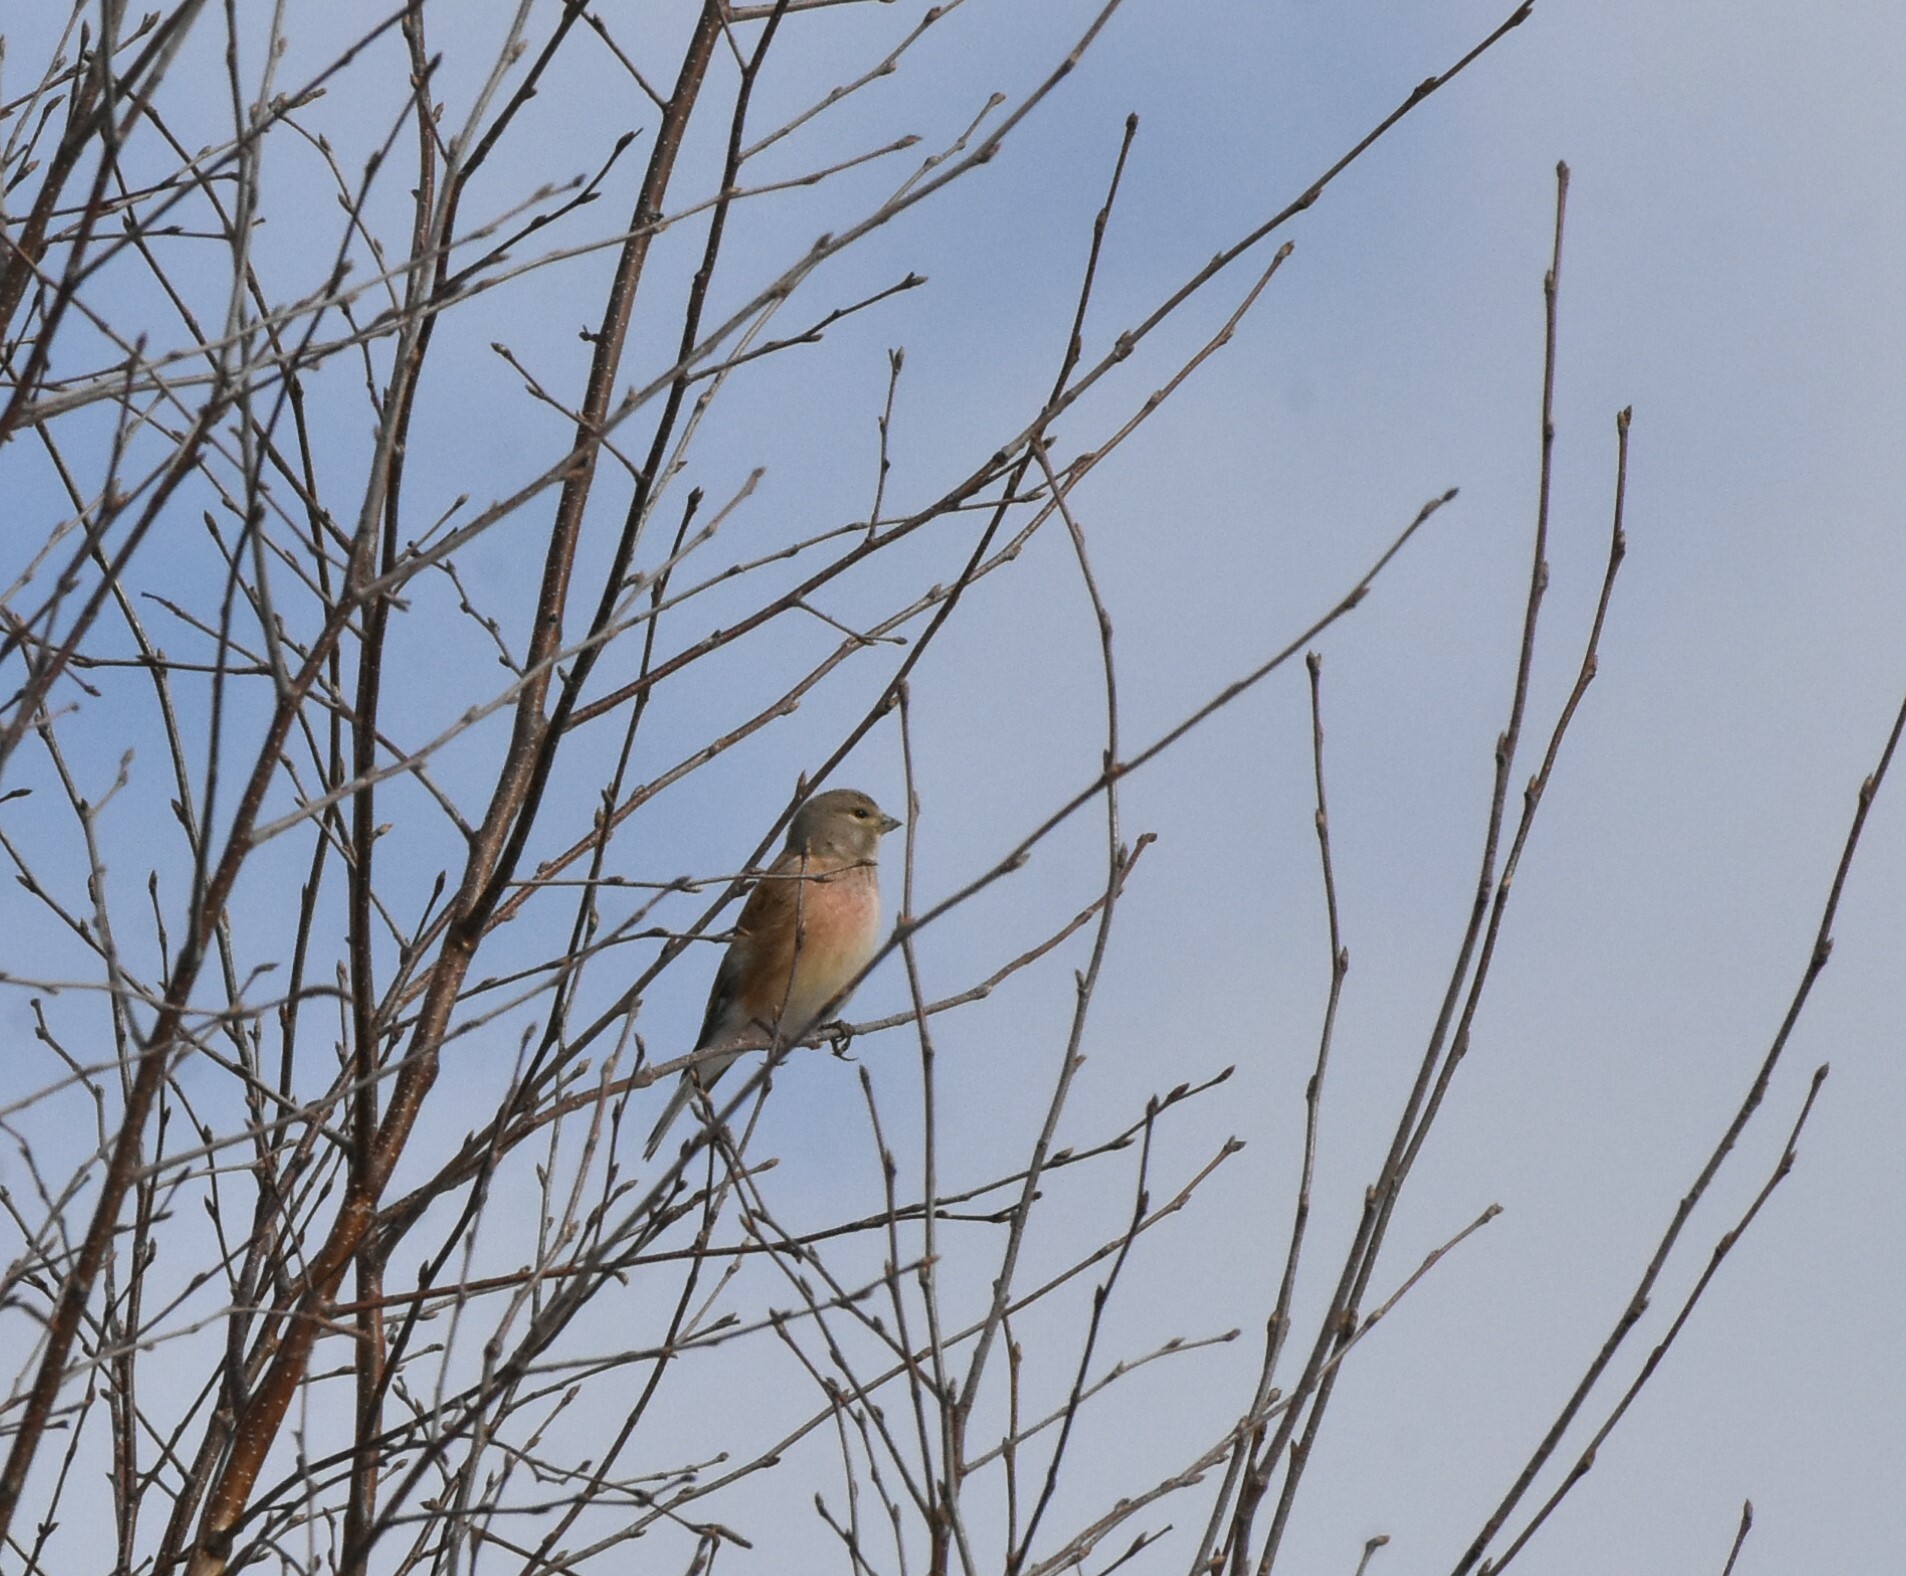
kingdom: Animalia
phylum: Chordata
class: Aves
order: Passeriformes
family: Fringillidae
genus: Linaria
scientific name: Linaria cannabina
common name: Common linnet
